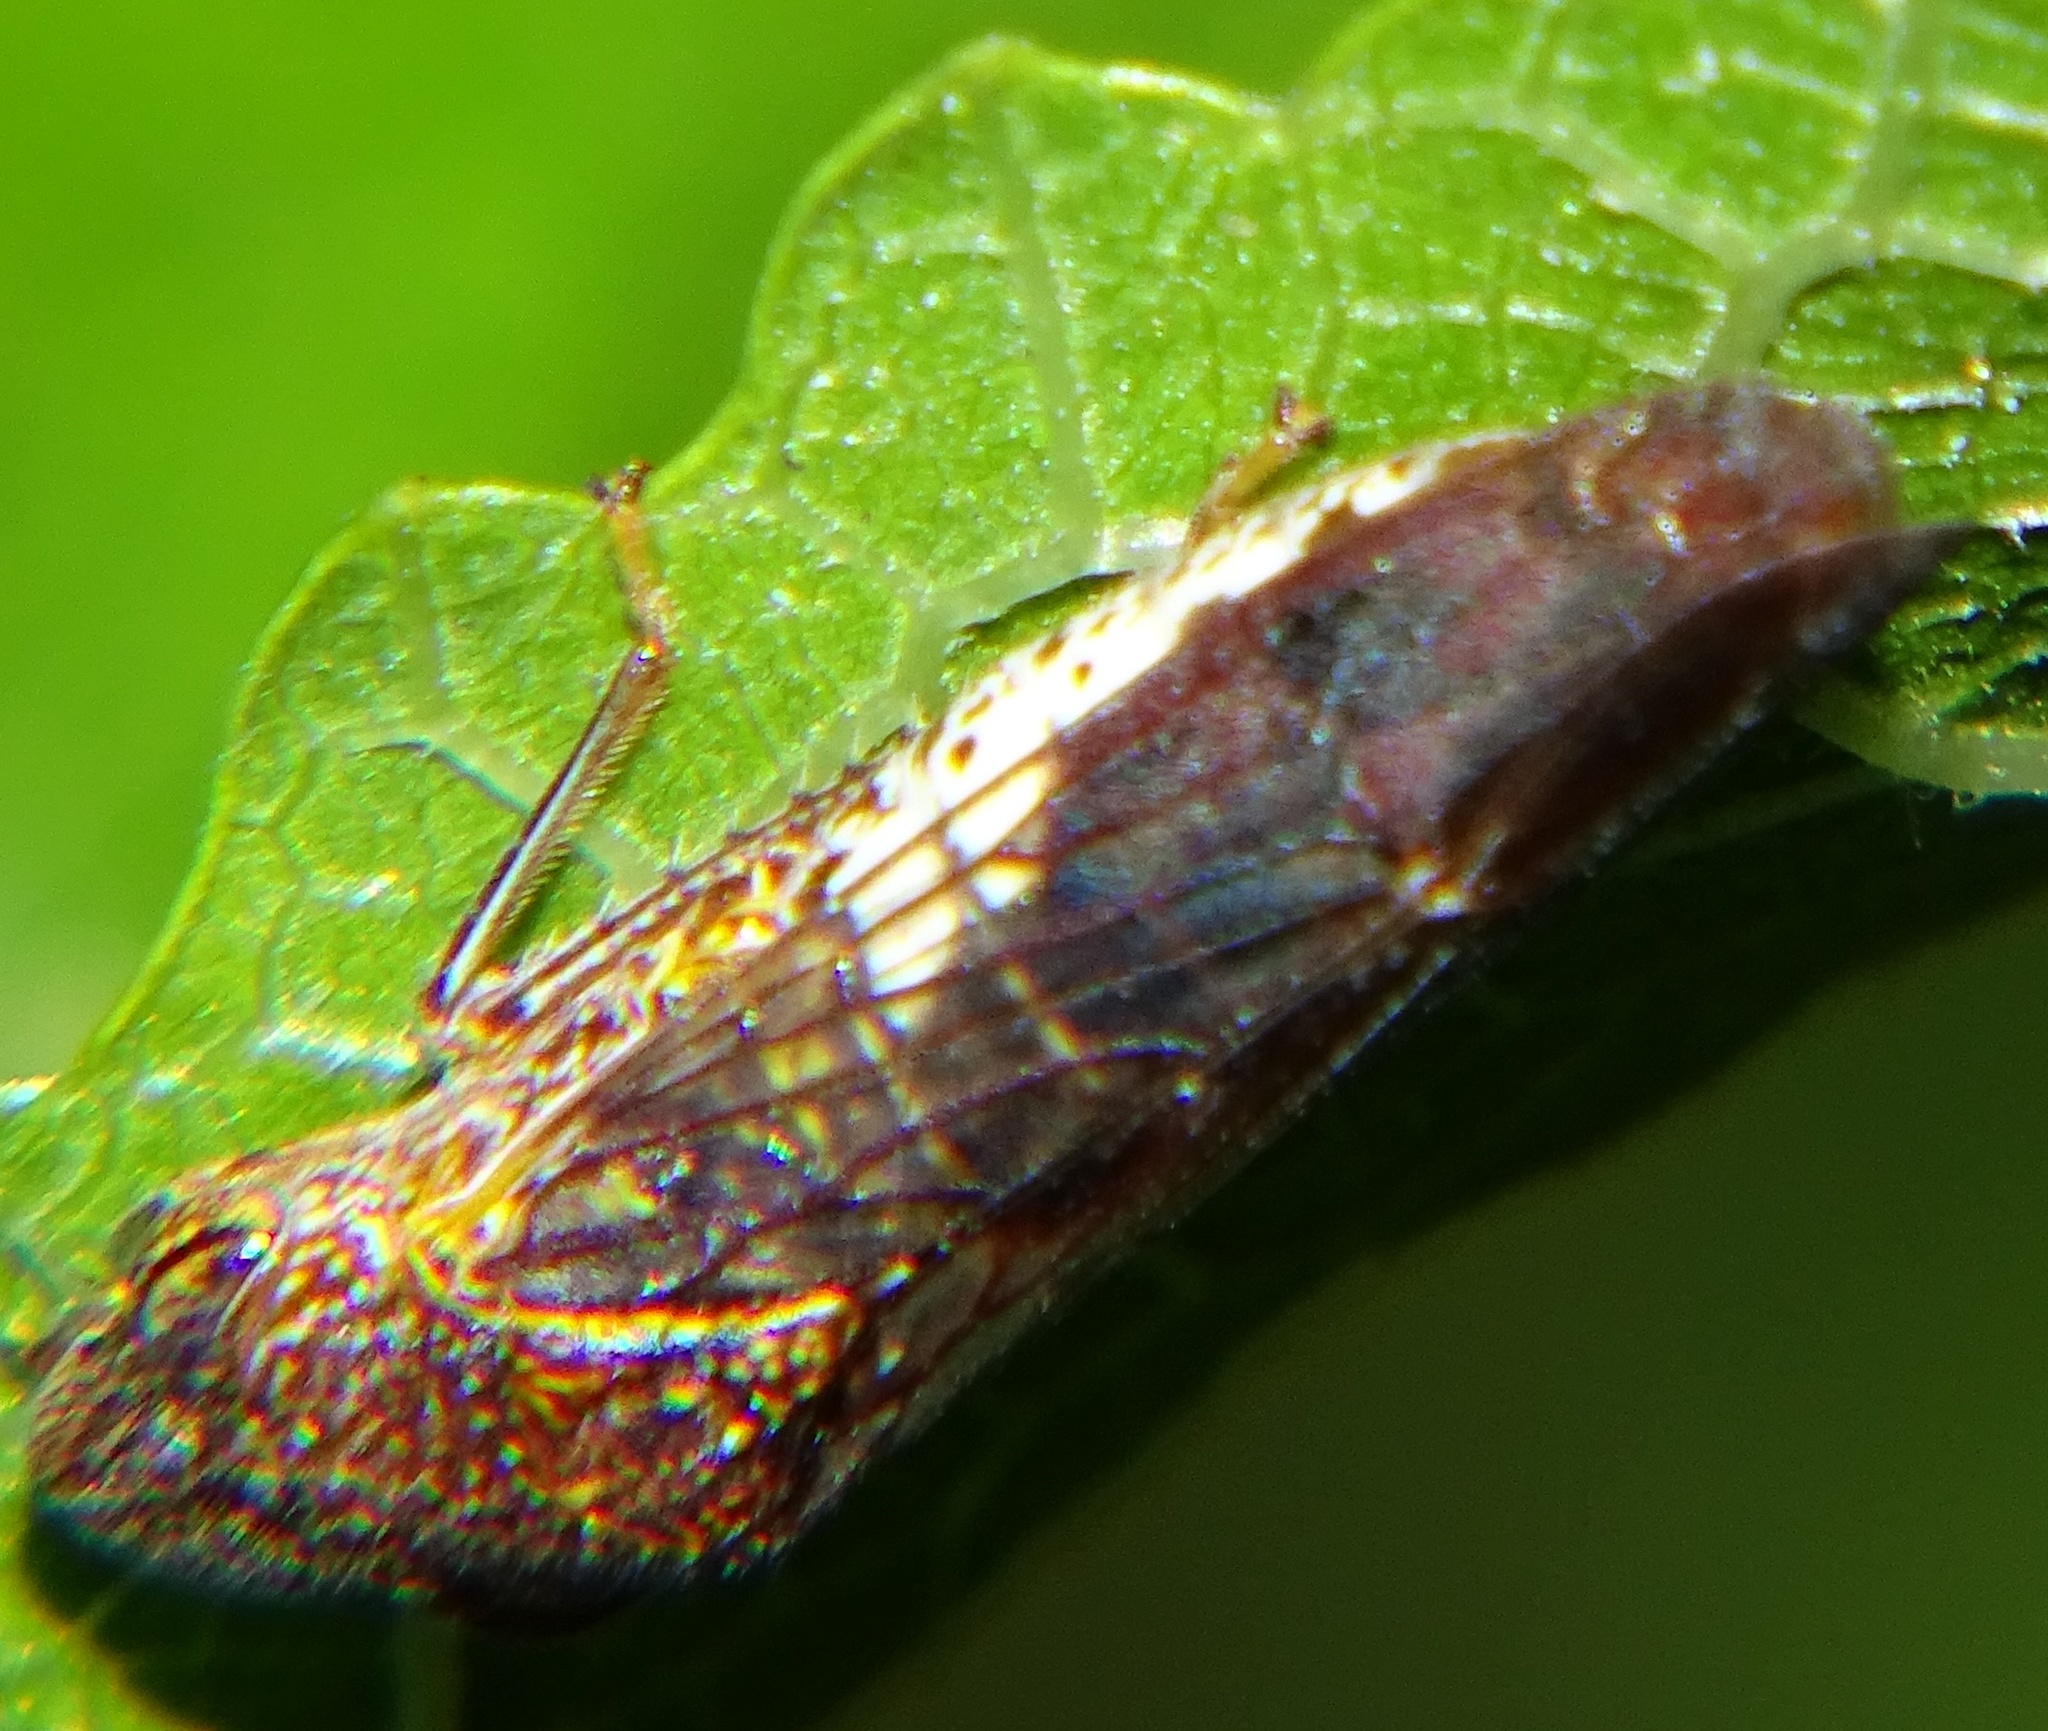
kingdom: Animalia
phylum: Arthropoda
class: Insecta
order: Hemiptera
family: Cicadellidae
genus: Homalodisca
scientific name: Homalodisca vitripennis
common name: Glassy-winged sharpshooter
